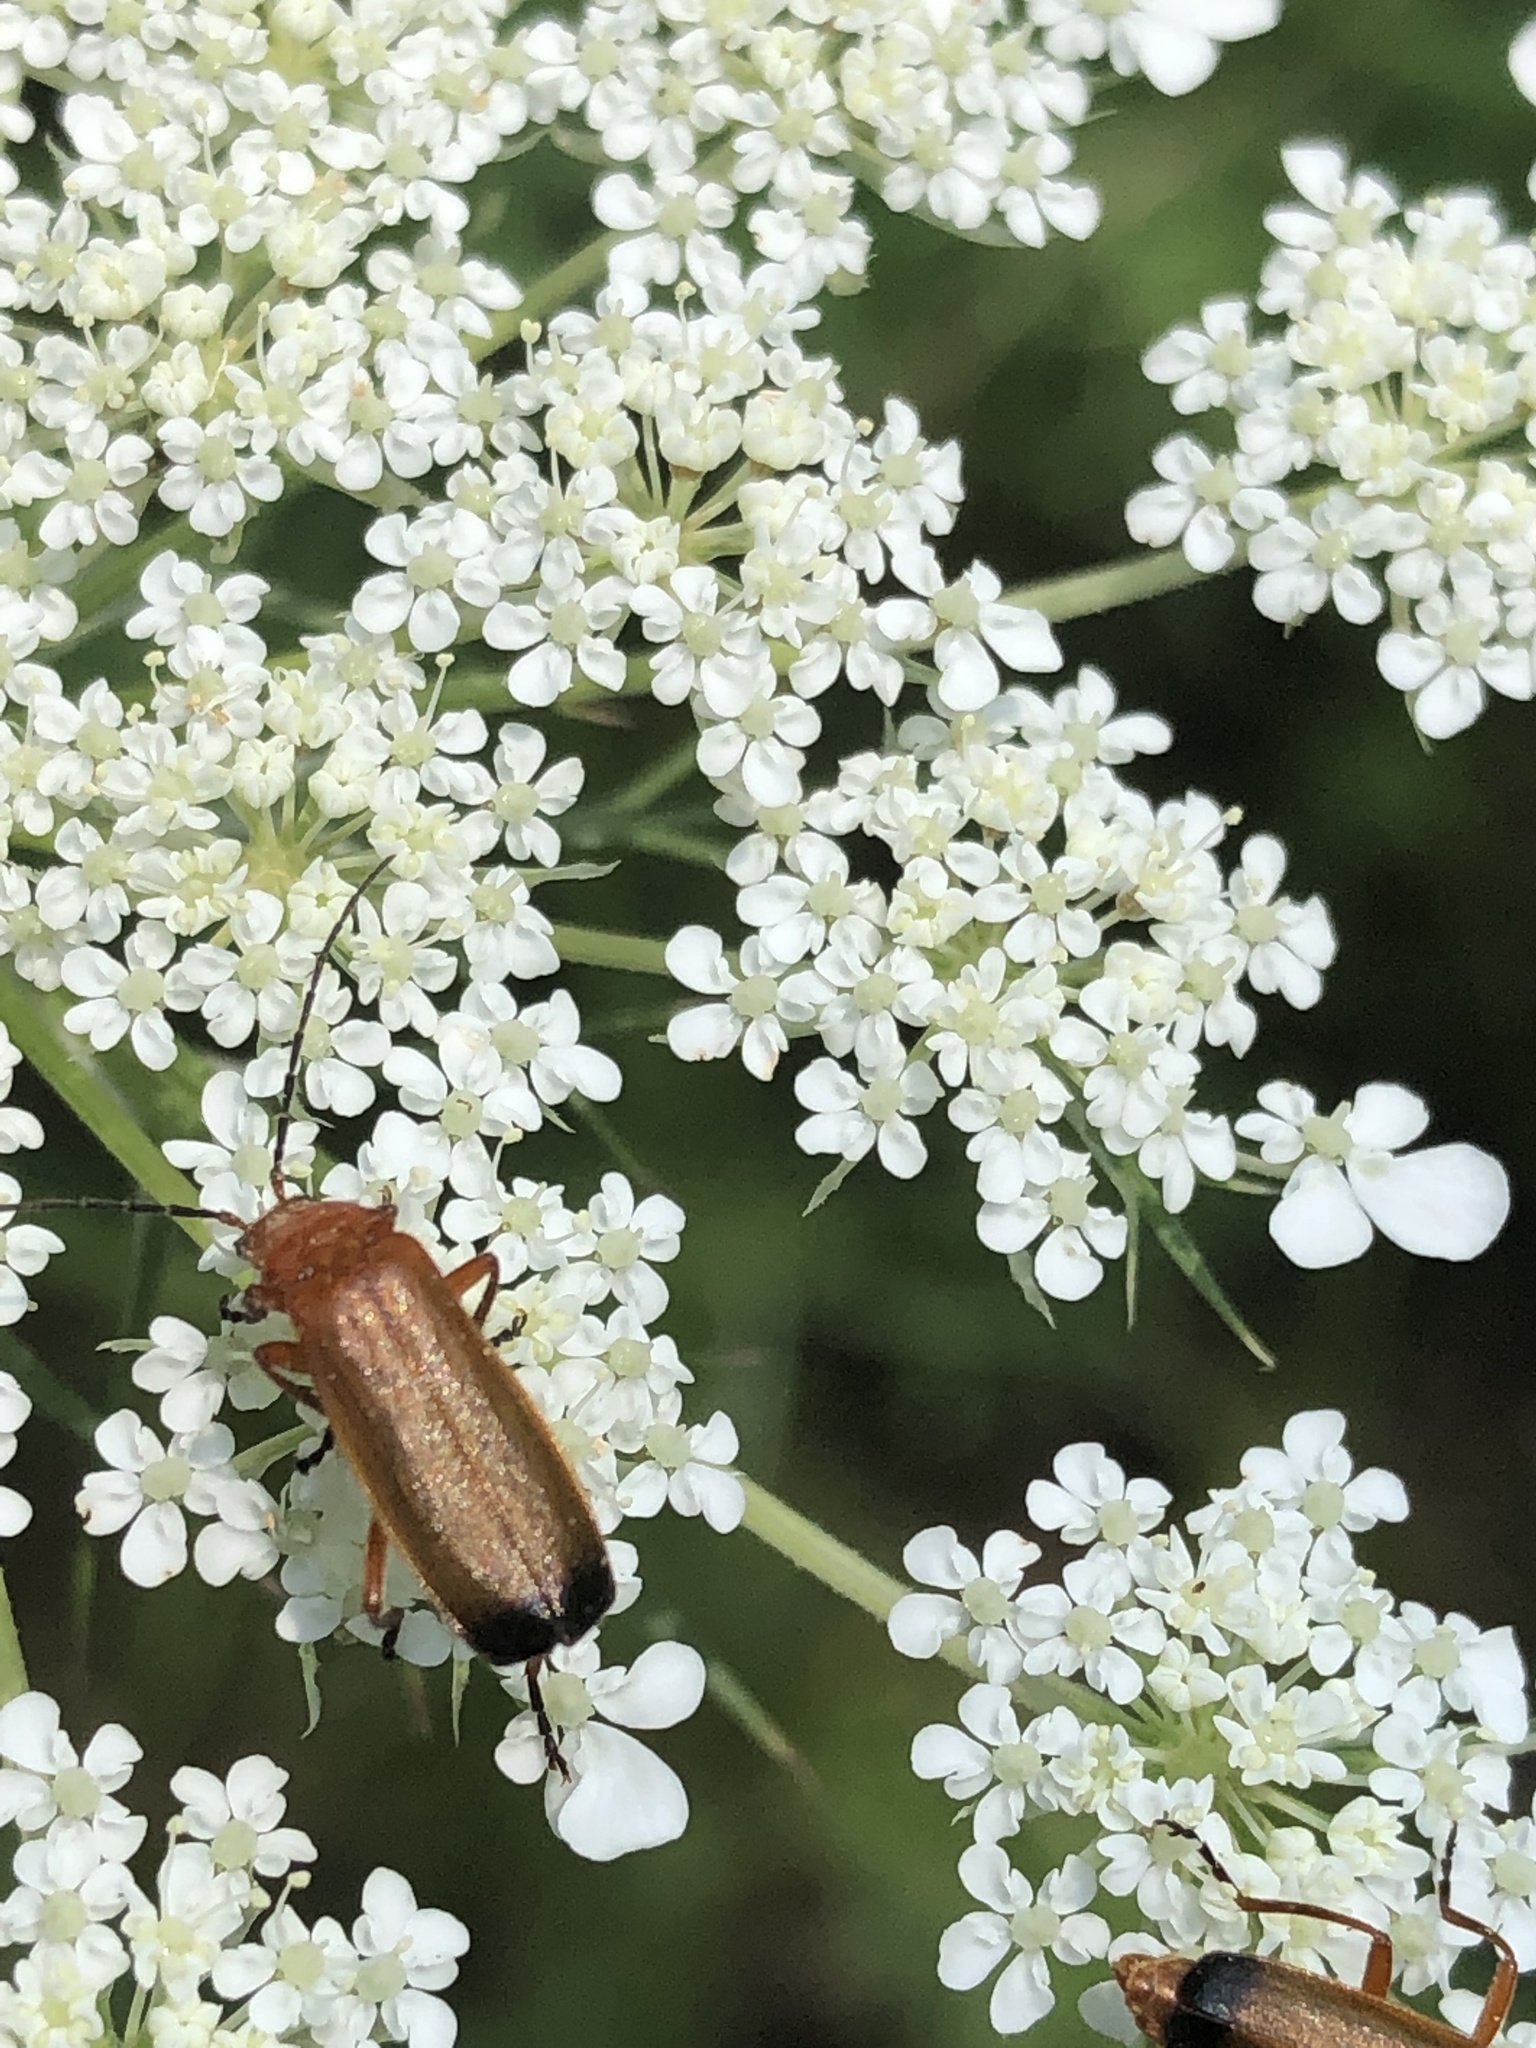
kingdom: Animalia
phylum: Arthropoda
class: Insecta
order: Coleoptera
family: Cantharidae
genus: Rhagonycha
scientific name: Rhagonycha fulva
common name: Common red soldier beetle
